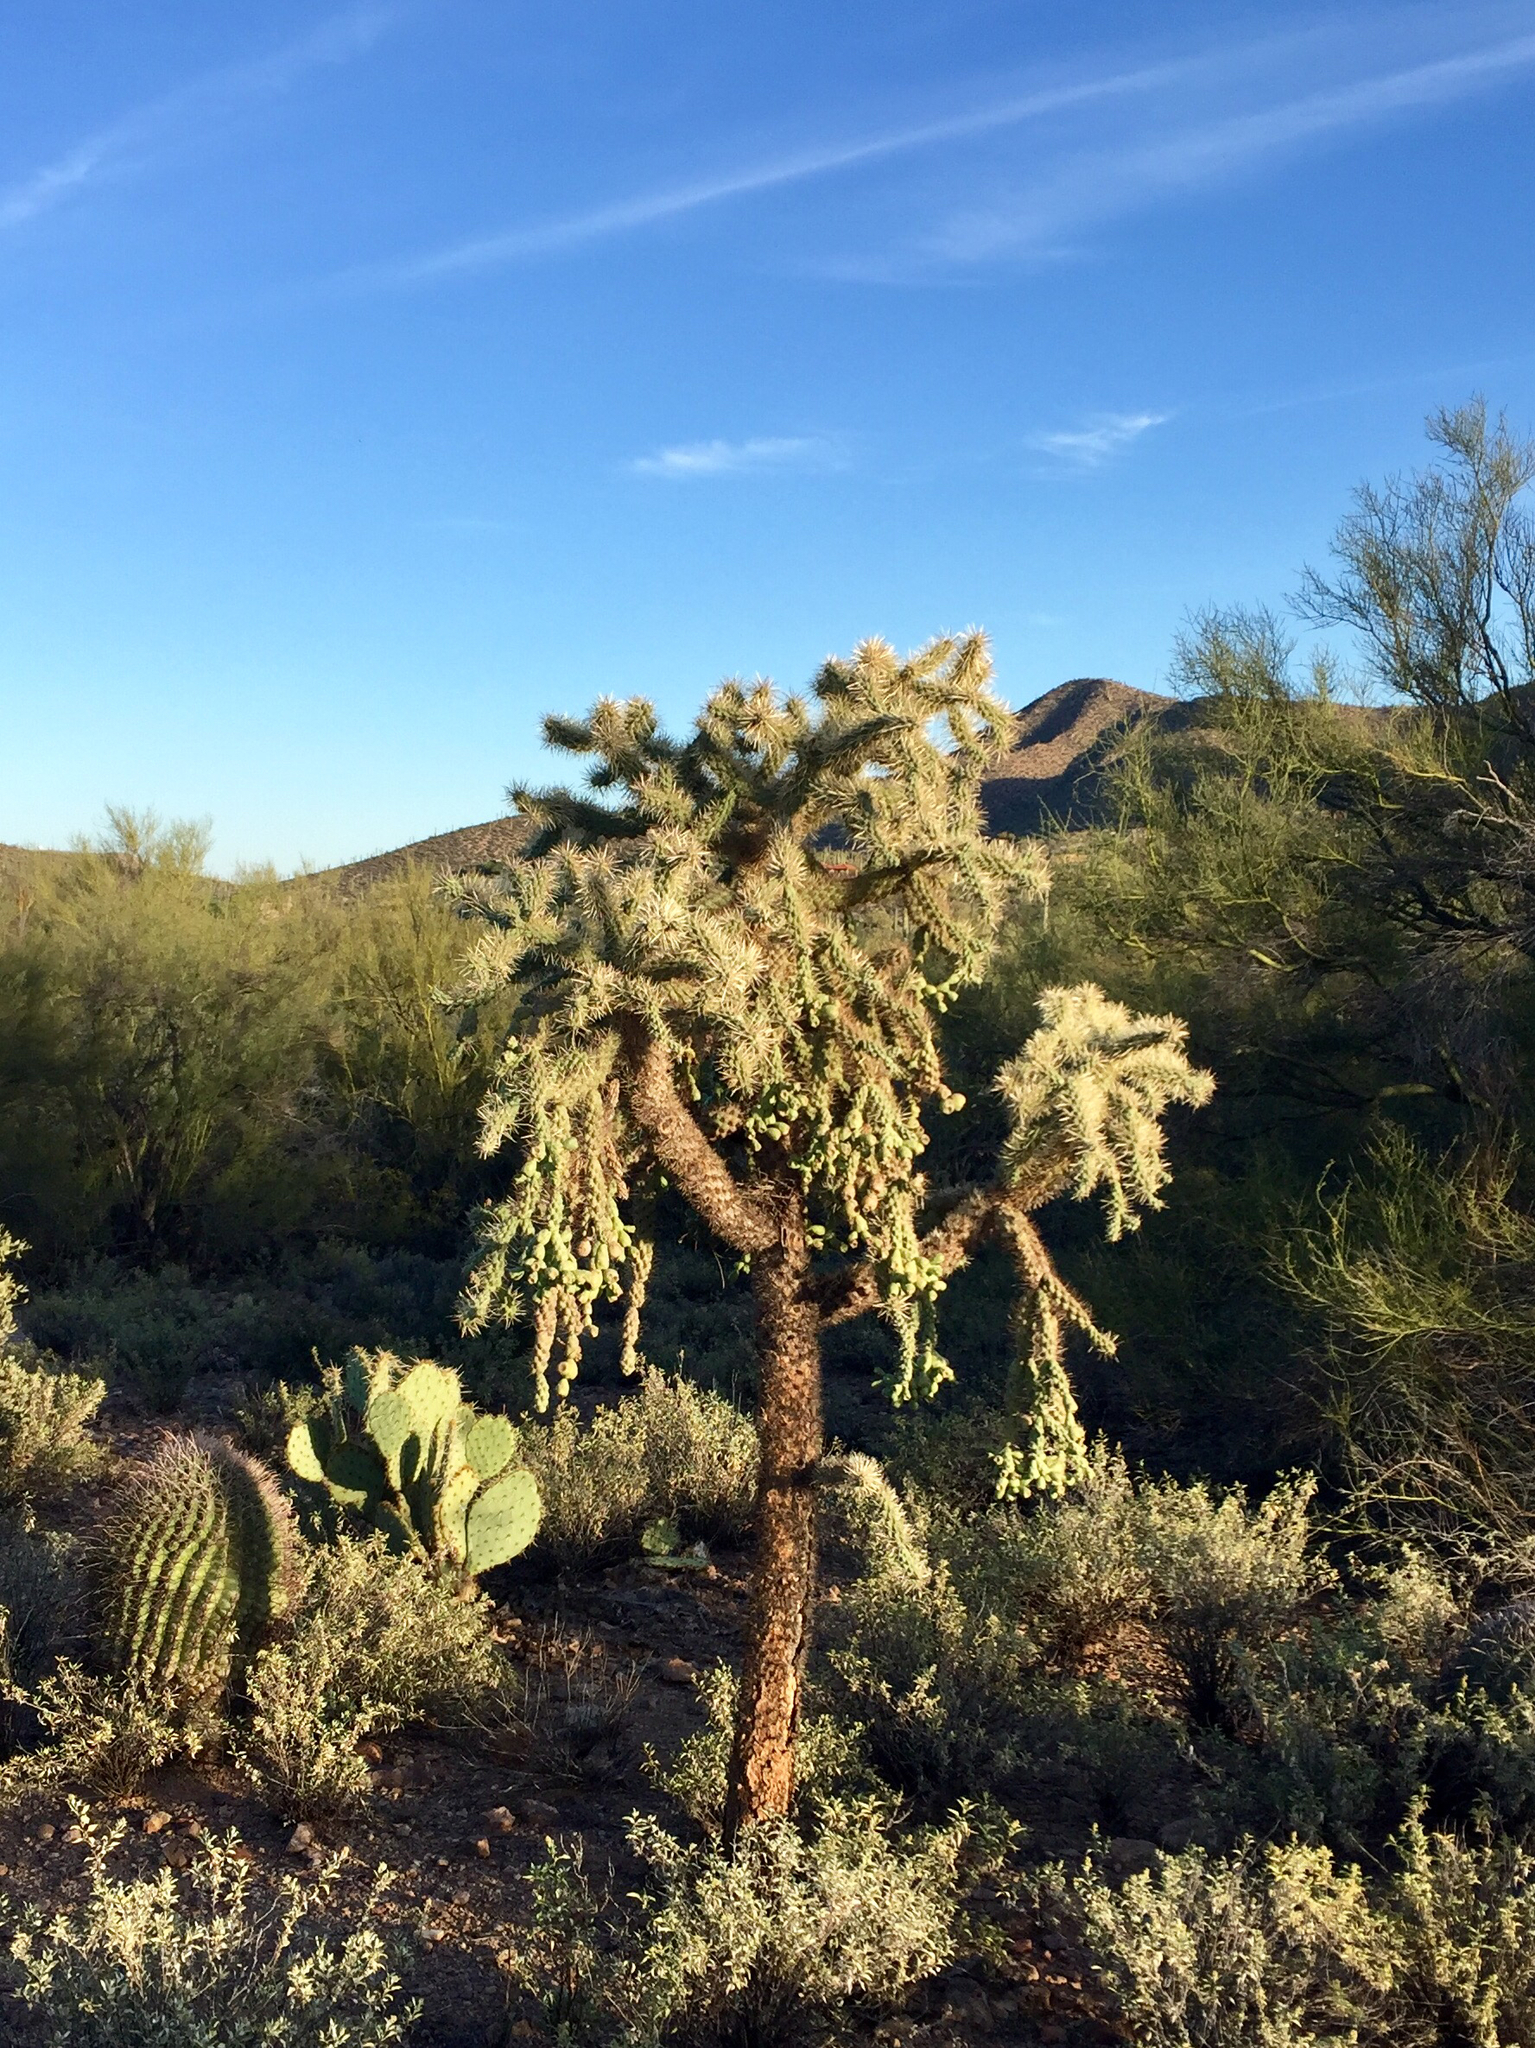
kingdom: Plantae
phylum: Tracheophyta
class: Magnoliopsida
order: Caryophyllales
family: Cactaceae
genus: Cylindropuntia
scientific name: Cylindropuntia fulgida
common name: Jumping cholla
